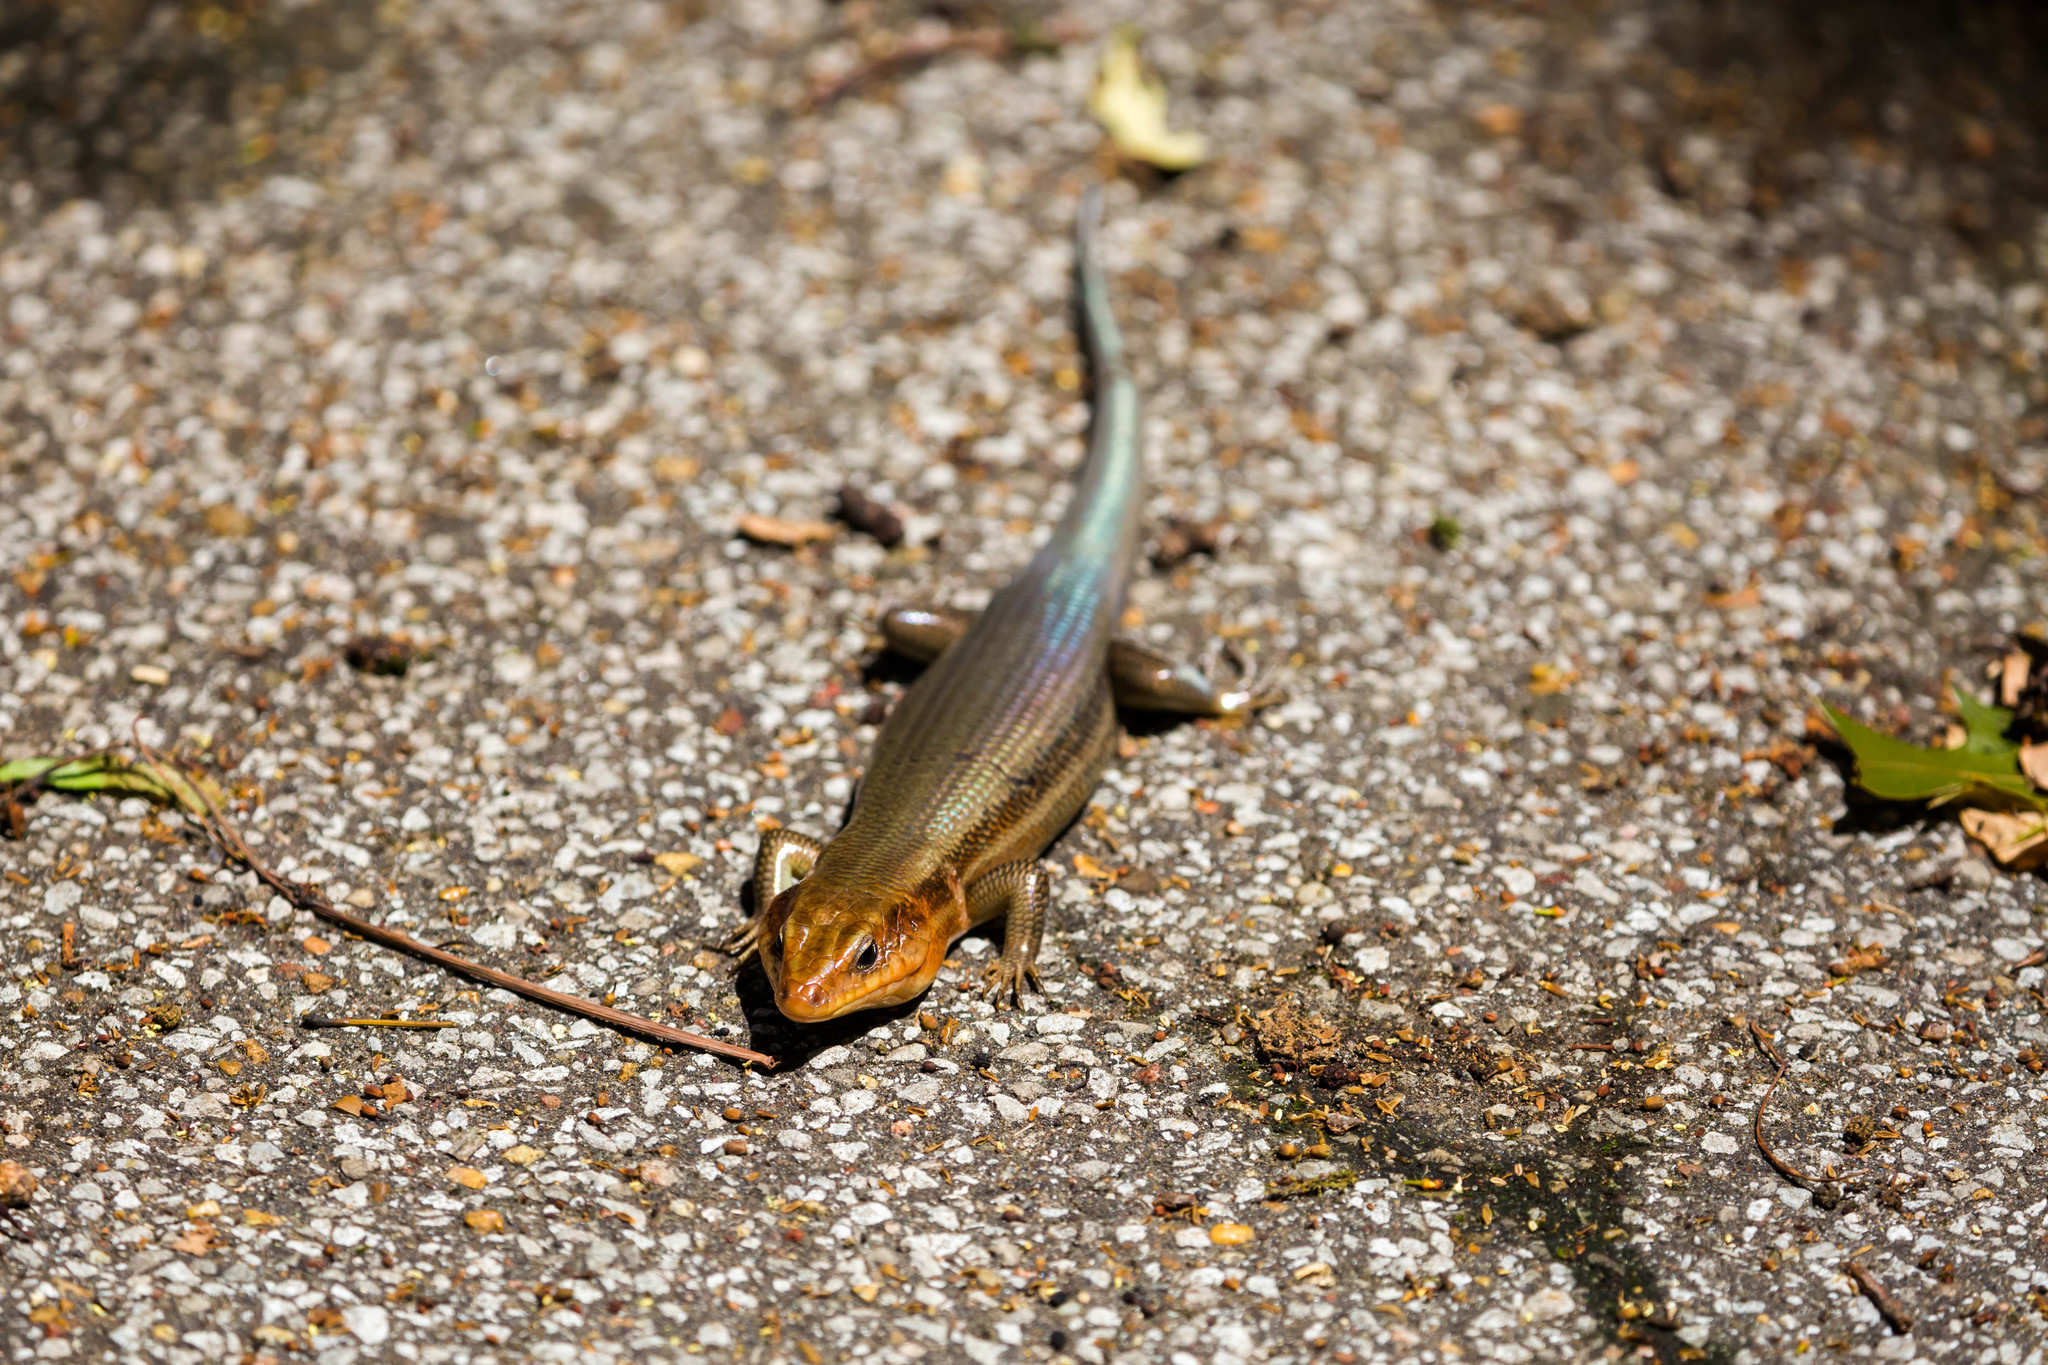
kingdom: Animalia
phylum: Chordata
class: Squamata
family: Scincidae
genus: Plestiodon
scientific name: Plestiodon laticeps
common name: Broadhead skink
